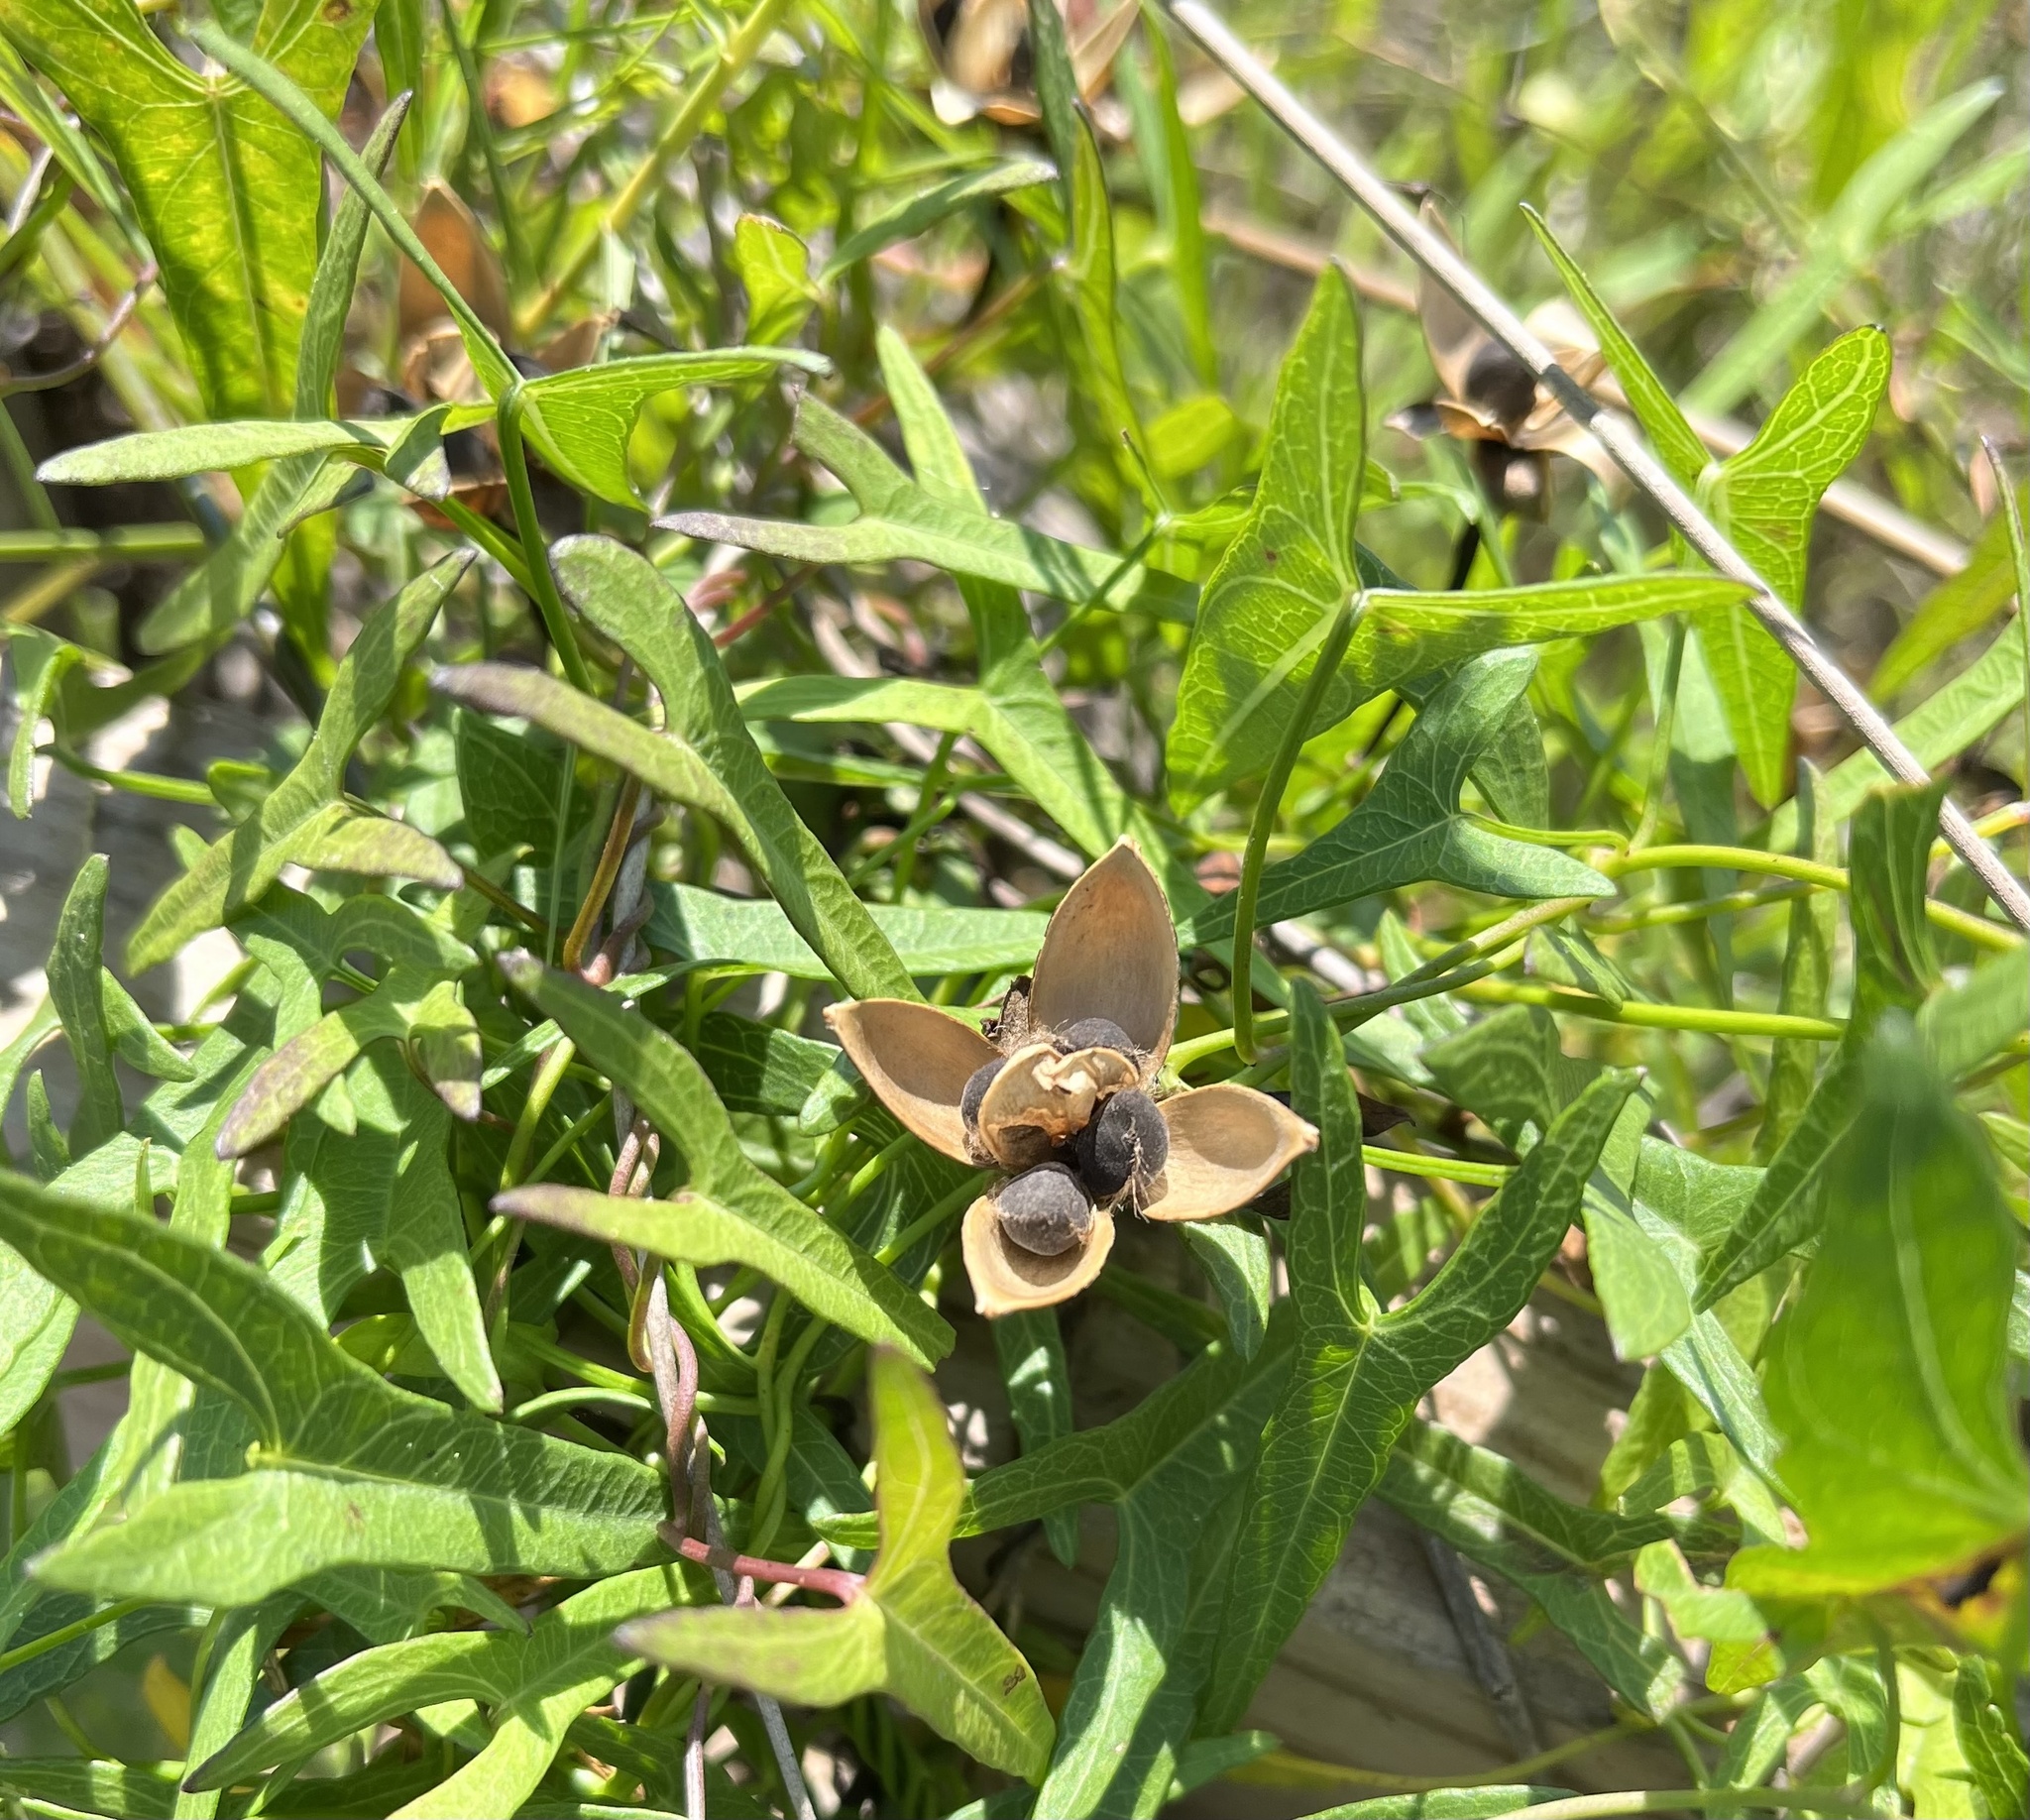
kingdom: Plantae
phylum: Tracheophyta
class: Magnoliopsida
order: Solanales
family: Convolvulaceae
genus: Ipomoea
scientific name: Ipomoea sagittata
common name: Saltmarsh morning glory
